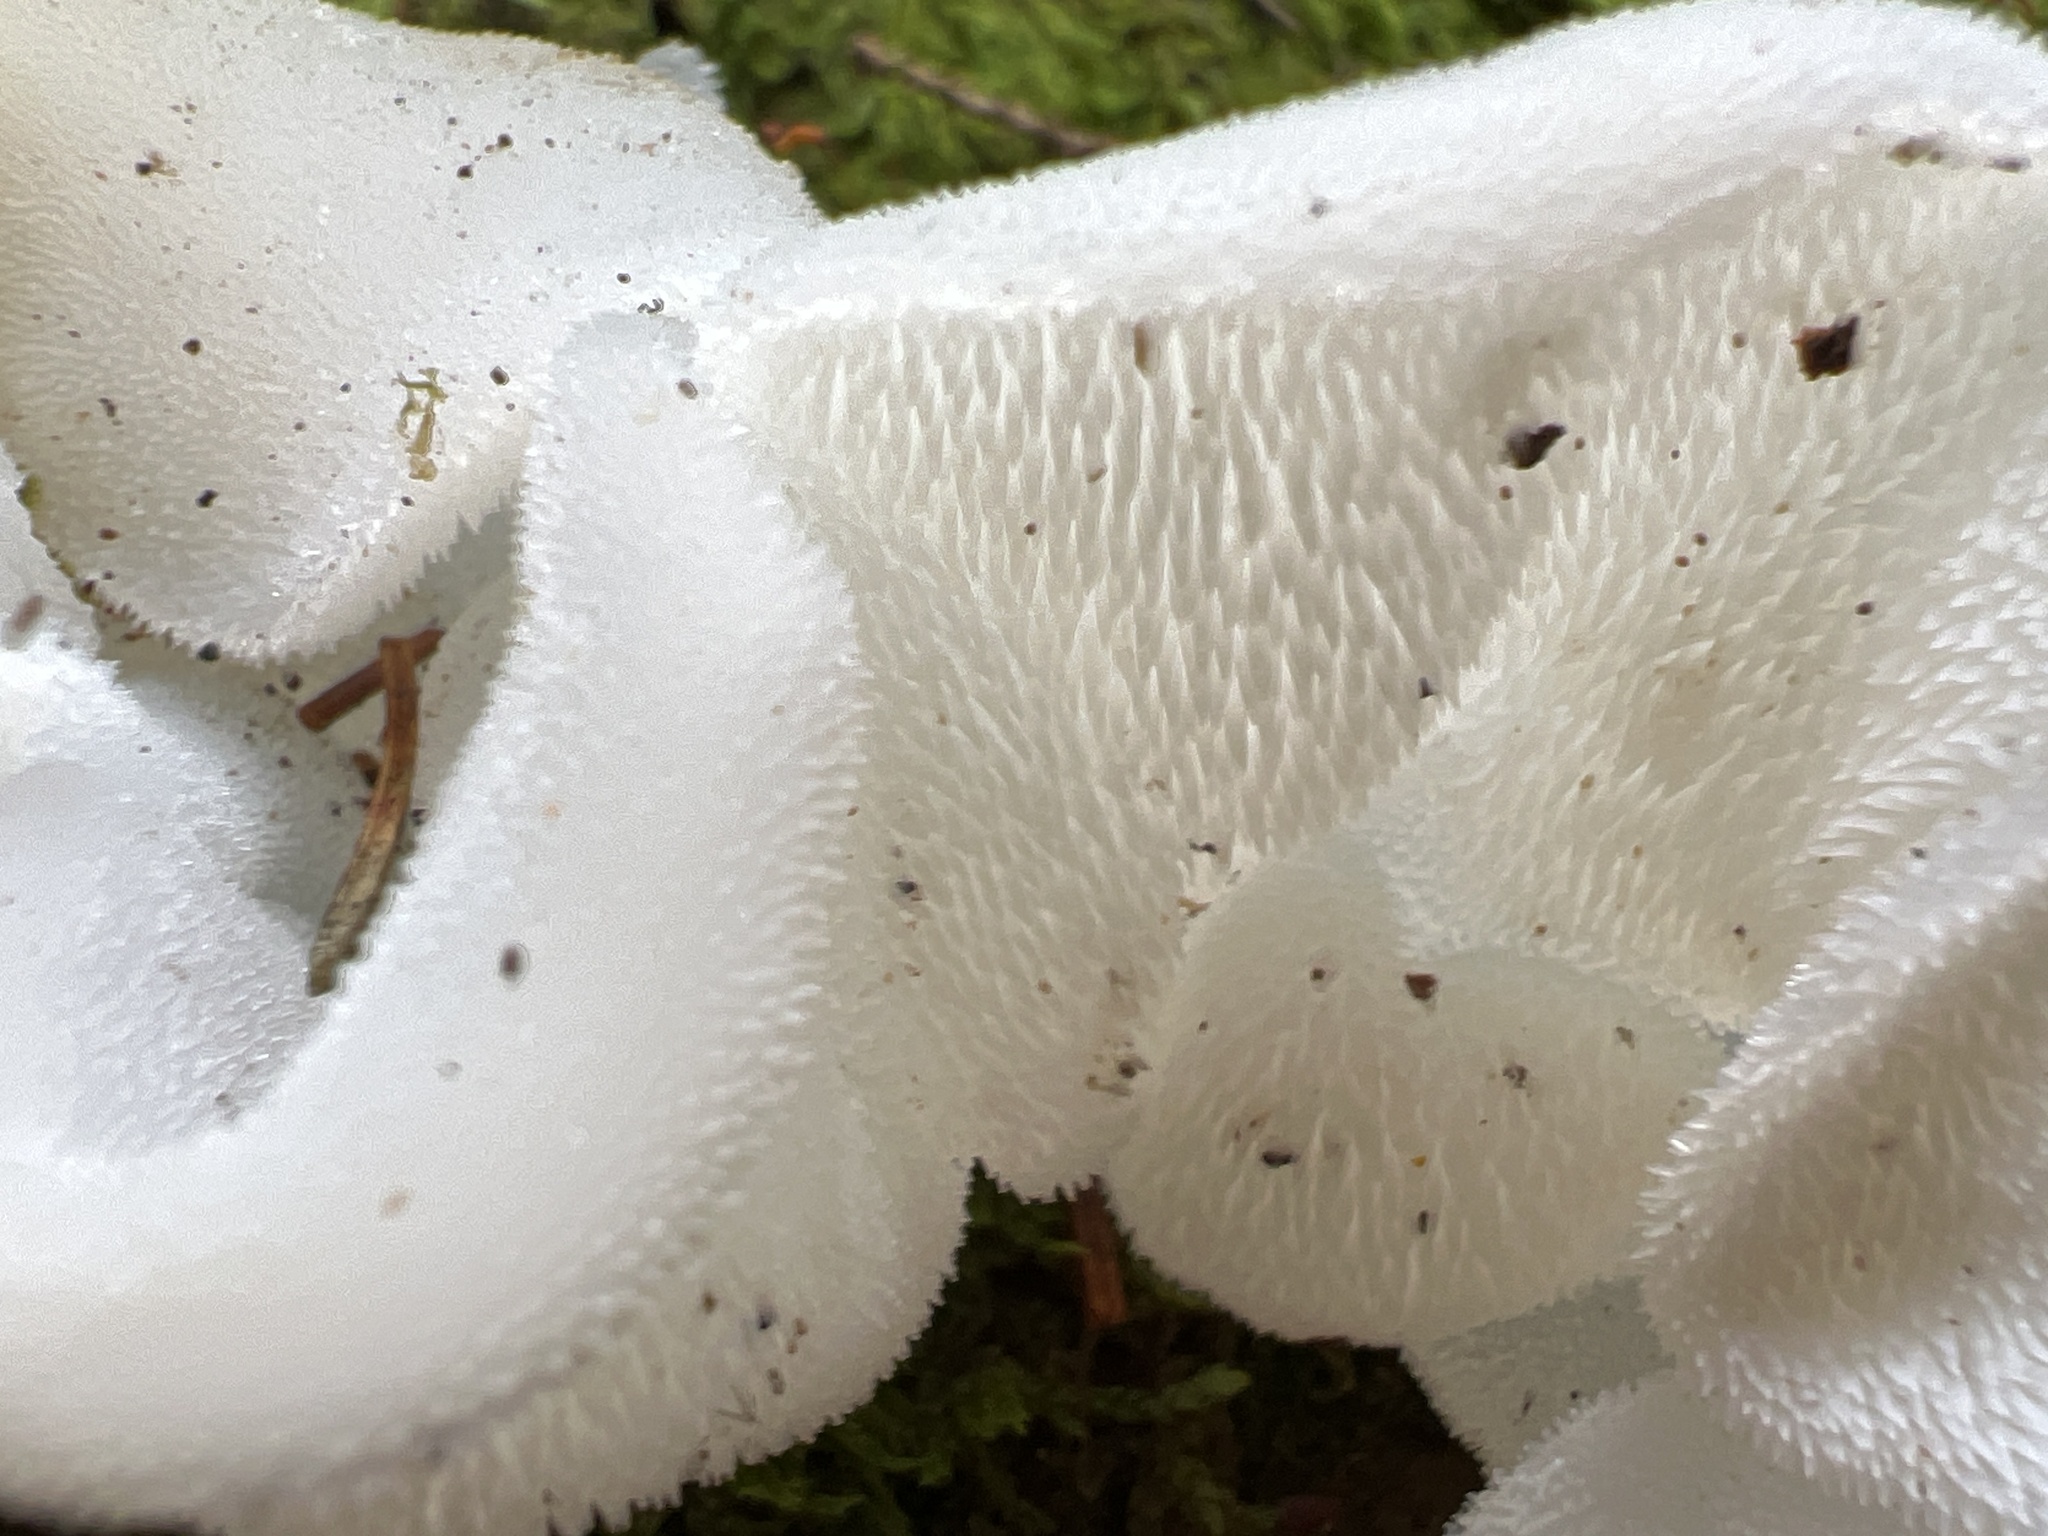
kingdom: Fungi
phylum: Basidiomycota
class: Agaricomycetes
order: Auriculariales
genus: Pseudohydnum
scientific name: Pseudohydnum gelatinosum
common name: Jelly tongue
